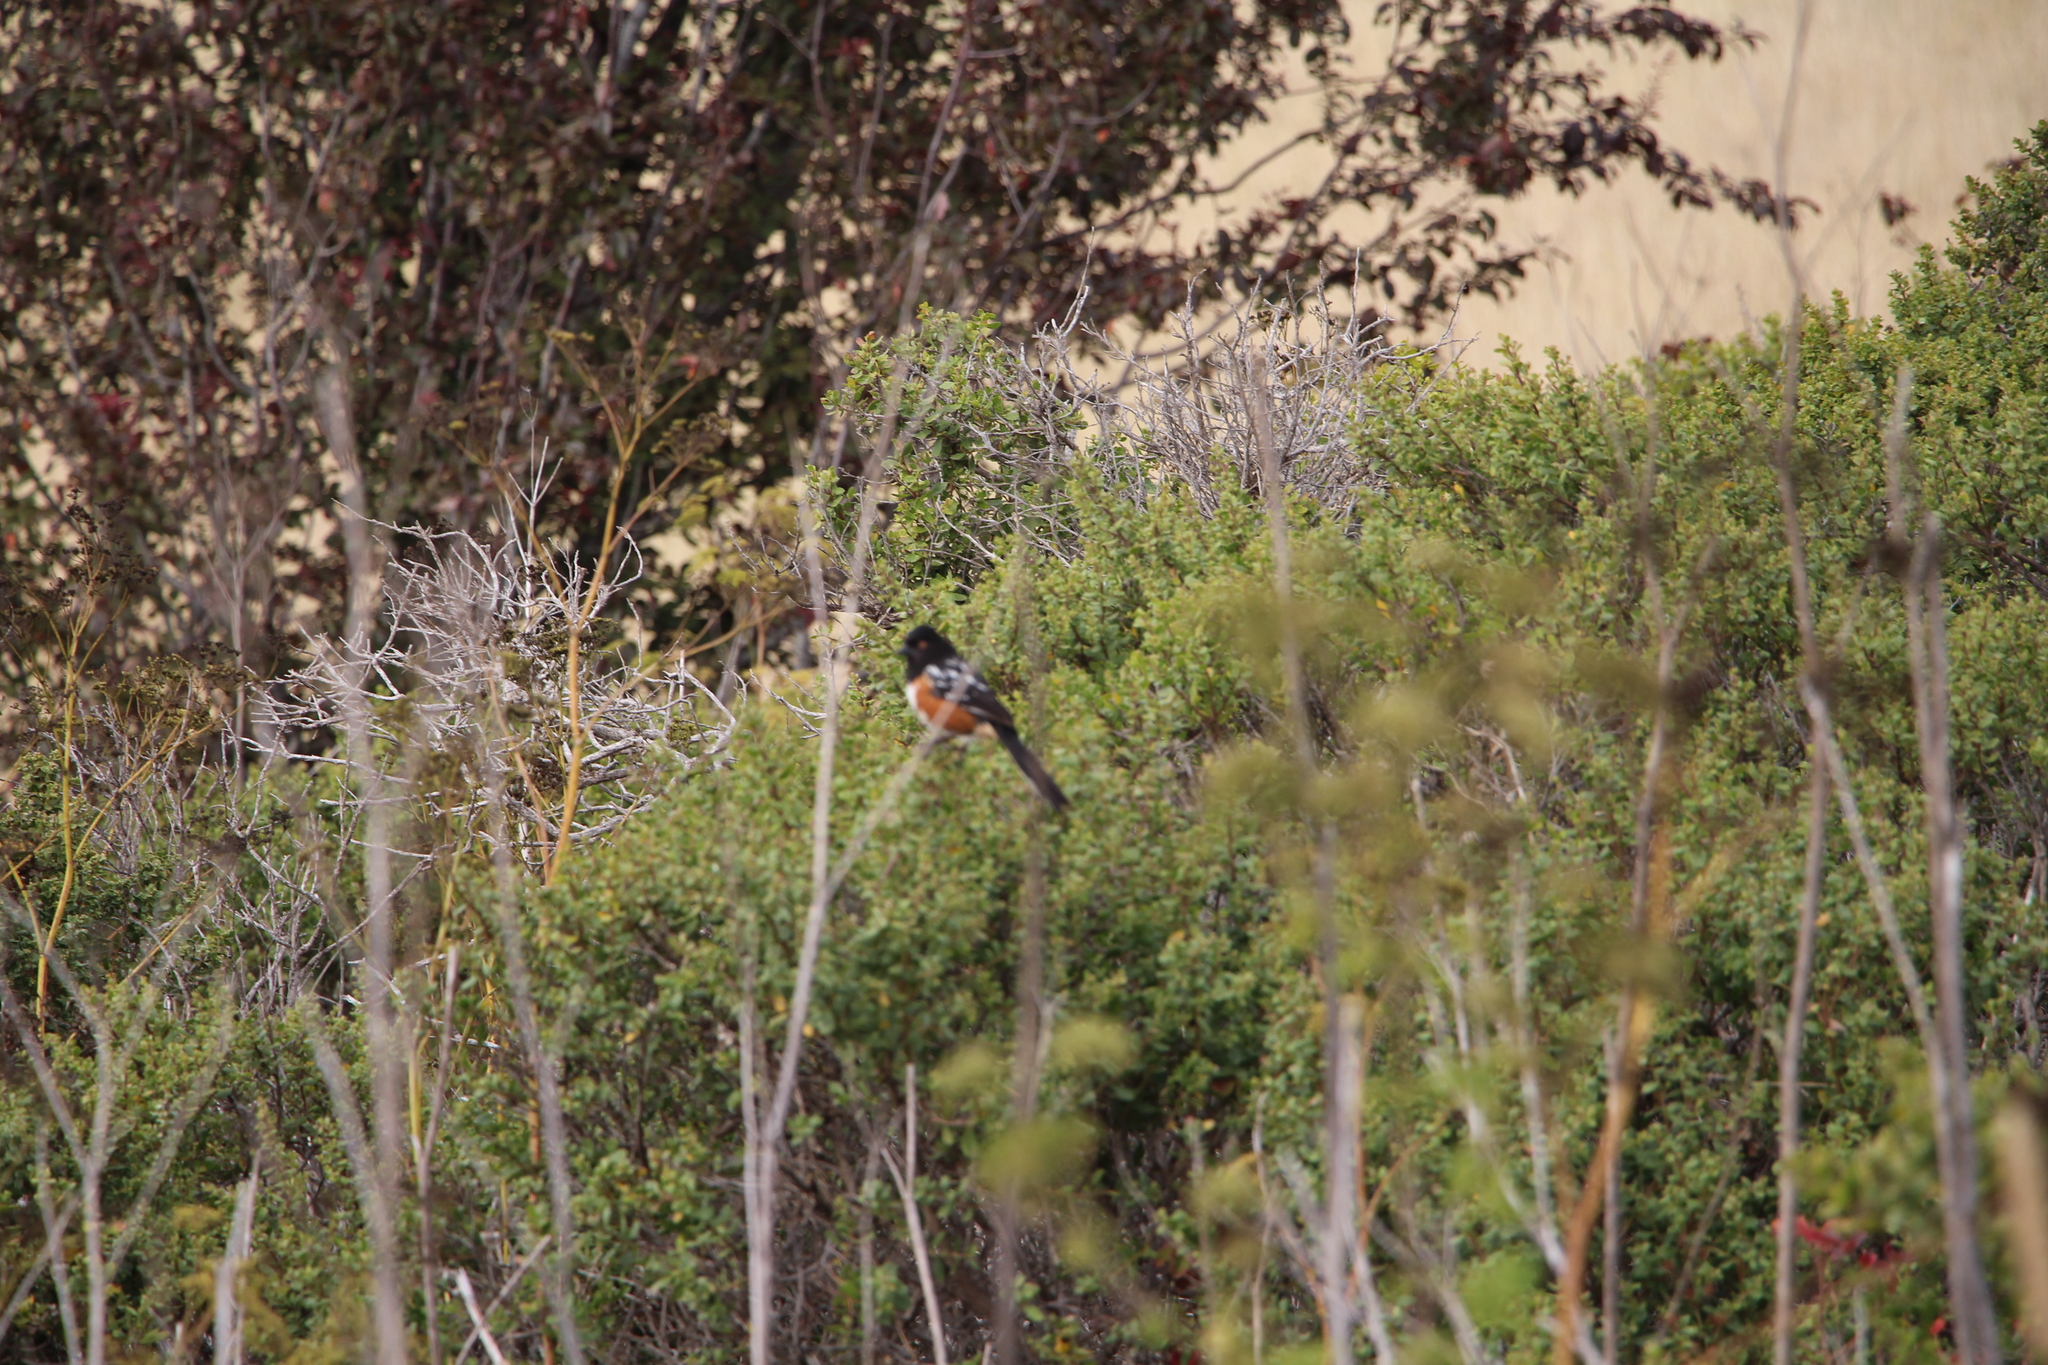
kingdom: Animalia
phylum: Chordata
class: Aves
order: Passeriformes
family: Passerellidae
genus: Pipilo
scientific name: Pipilo maculatus
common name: Spotted towhee
